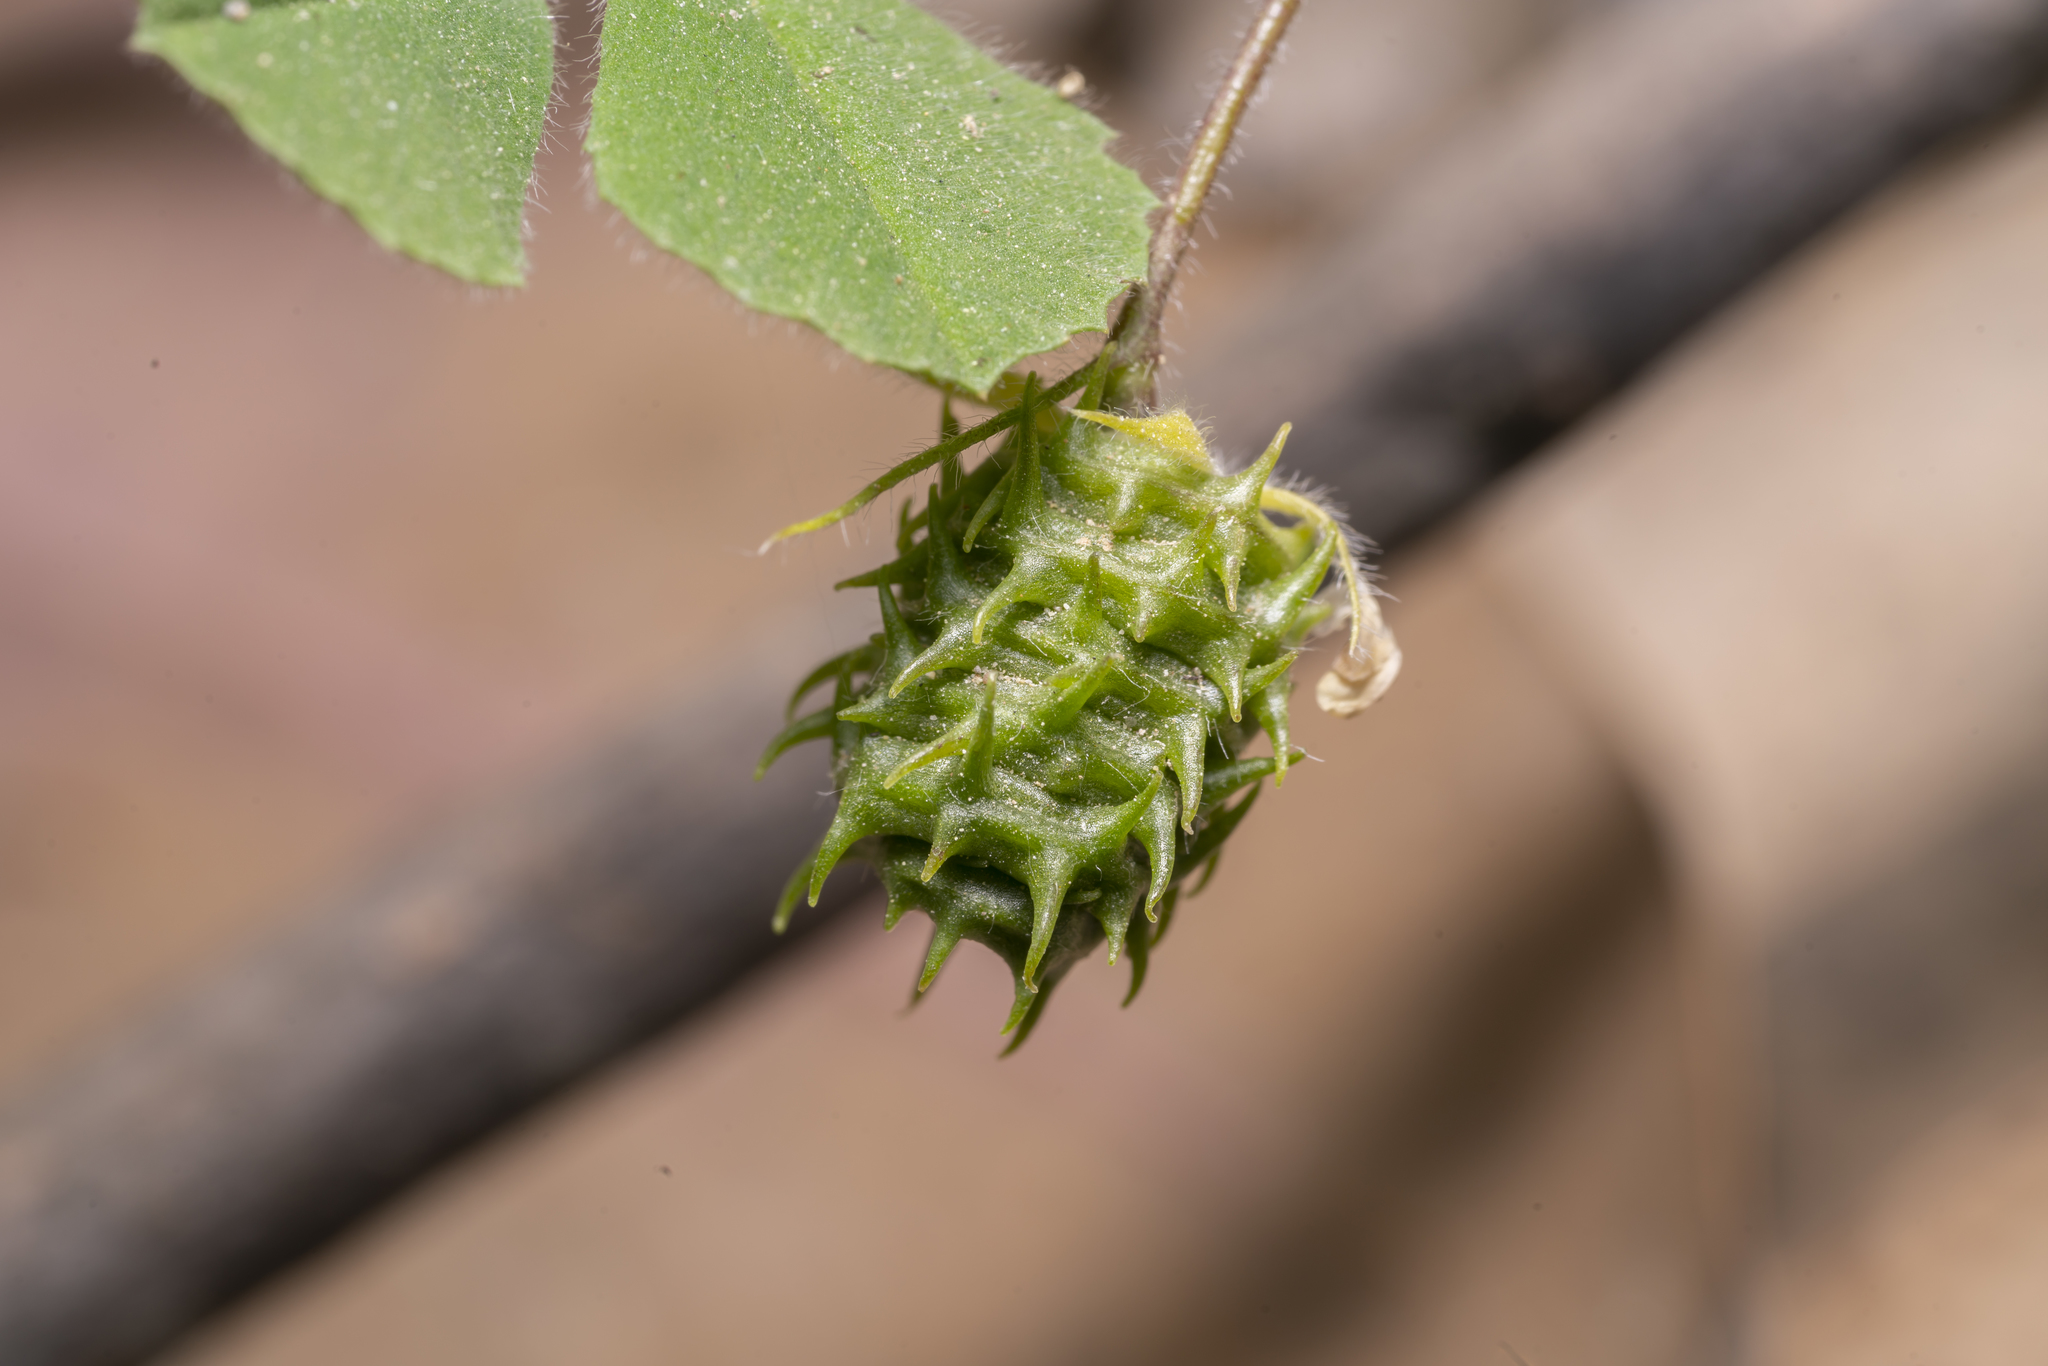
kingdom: Plantae
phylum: Tracheophyta
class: Magnoliopsida
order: Fabales
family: Fabaceae
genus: Medicago
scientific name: Medicago truncatula
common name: Strong-spined medick
